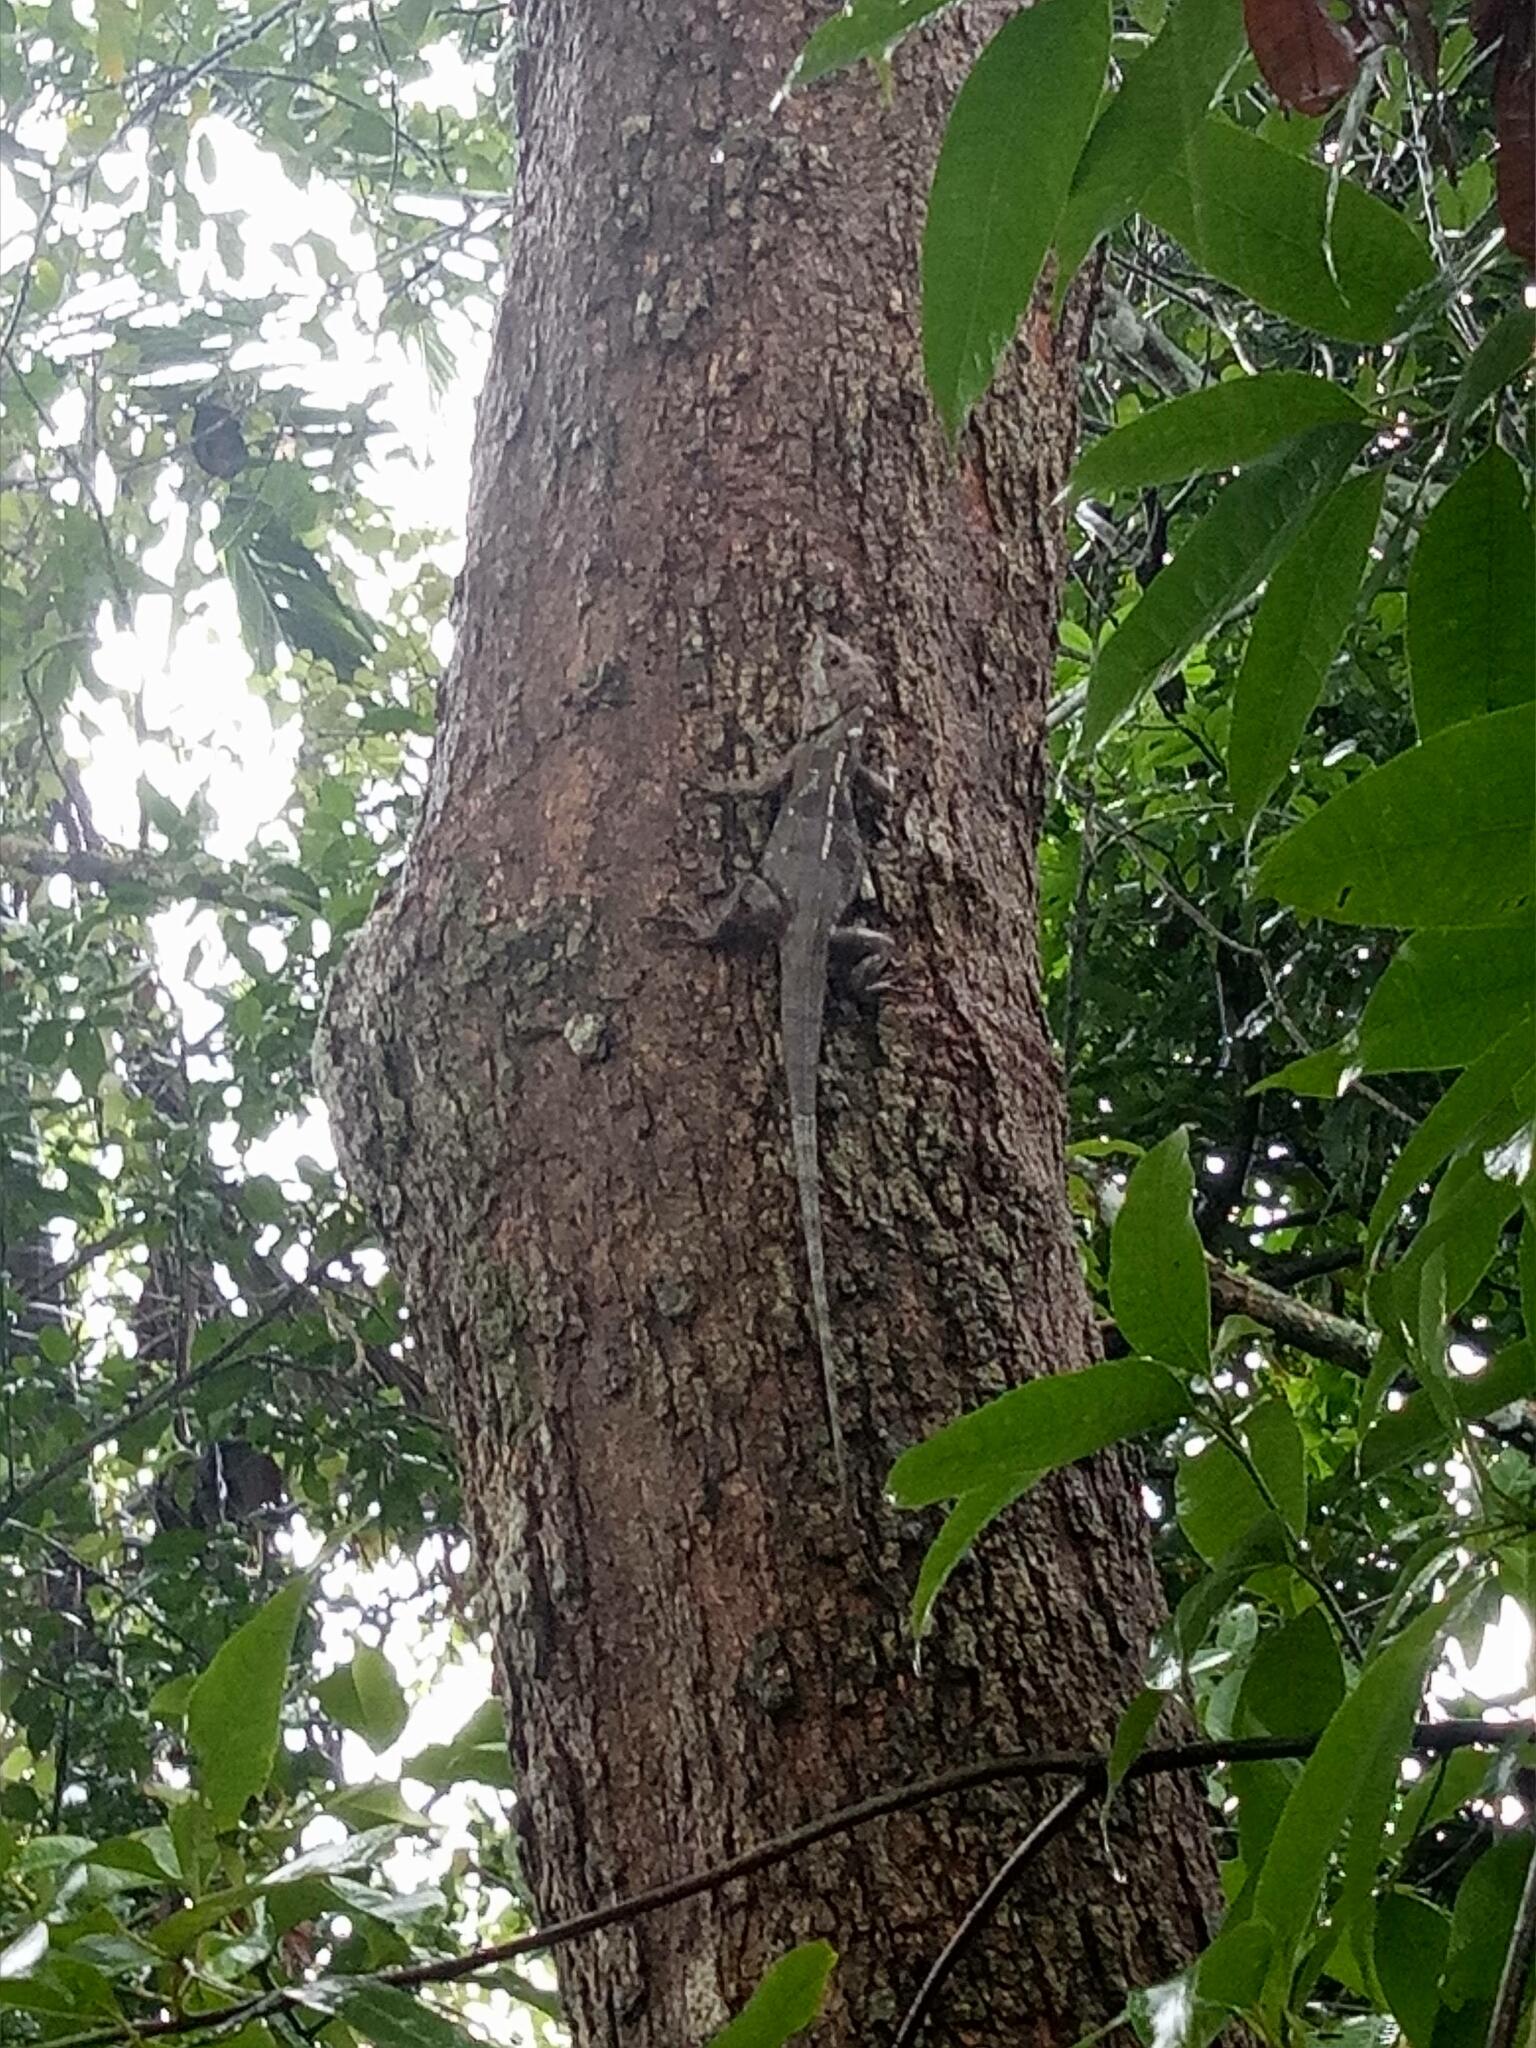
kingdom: Animalia
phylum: Chordata
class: Squamata
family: Agamidae
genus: Calotes
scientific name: Calotes goetzi
